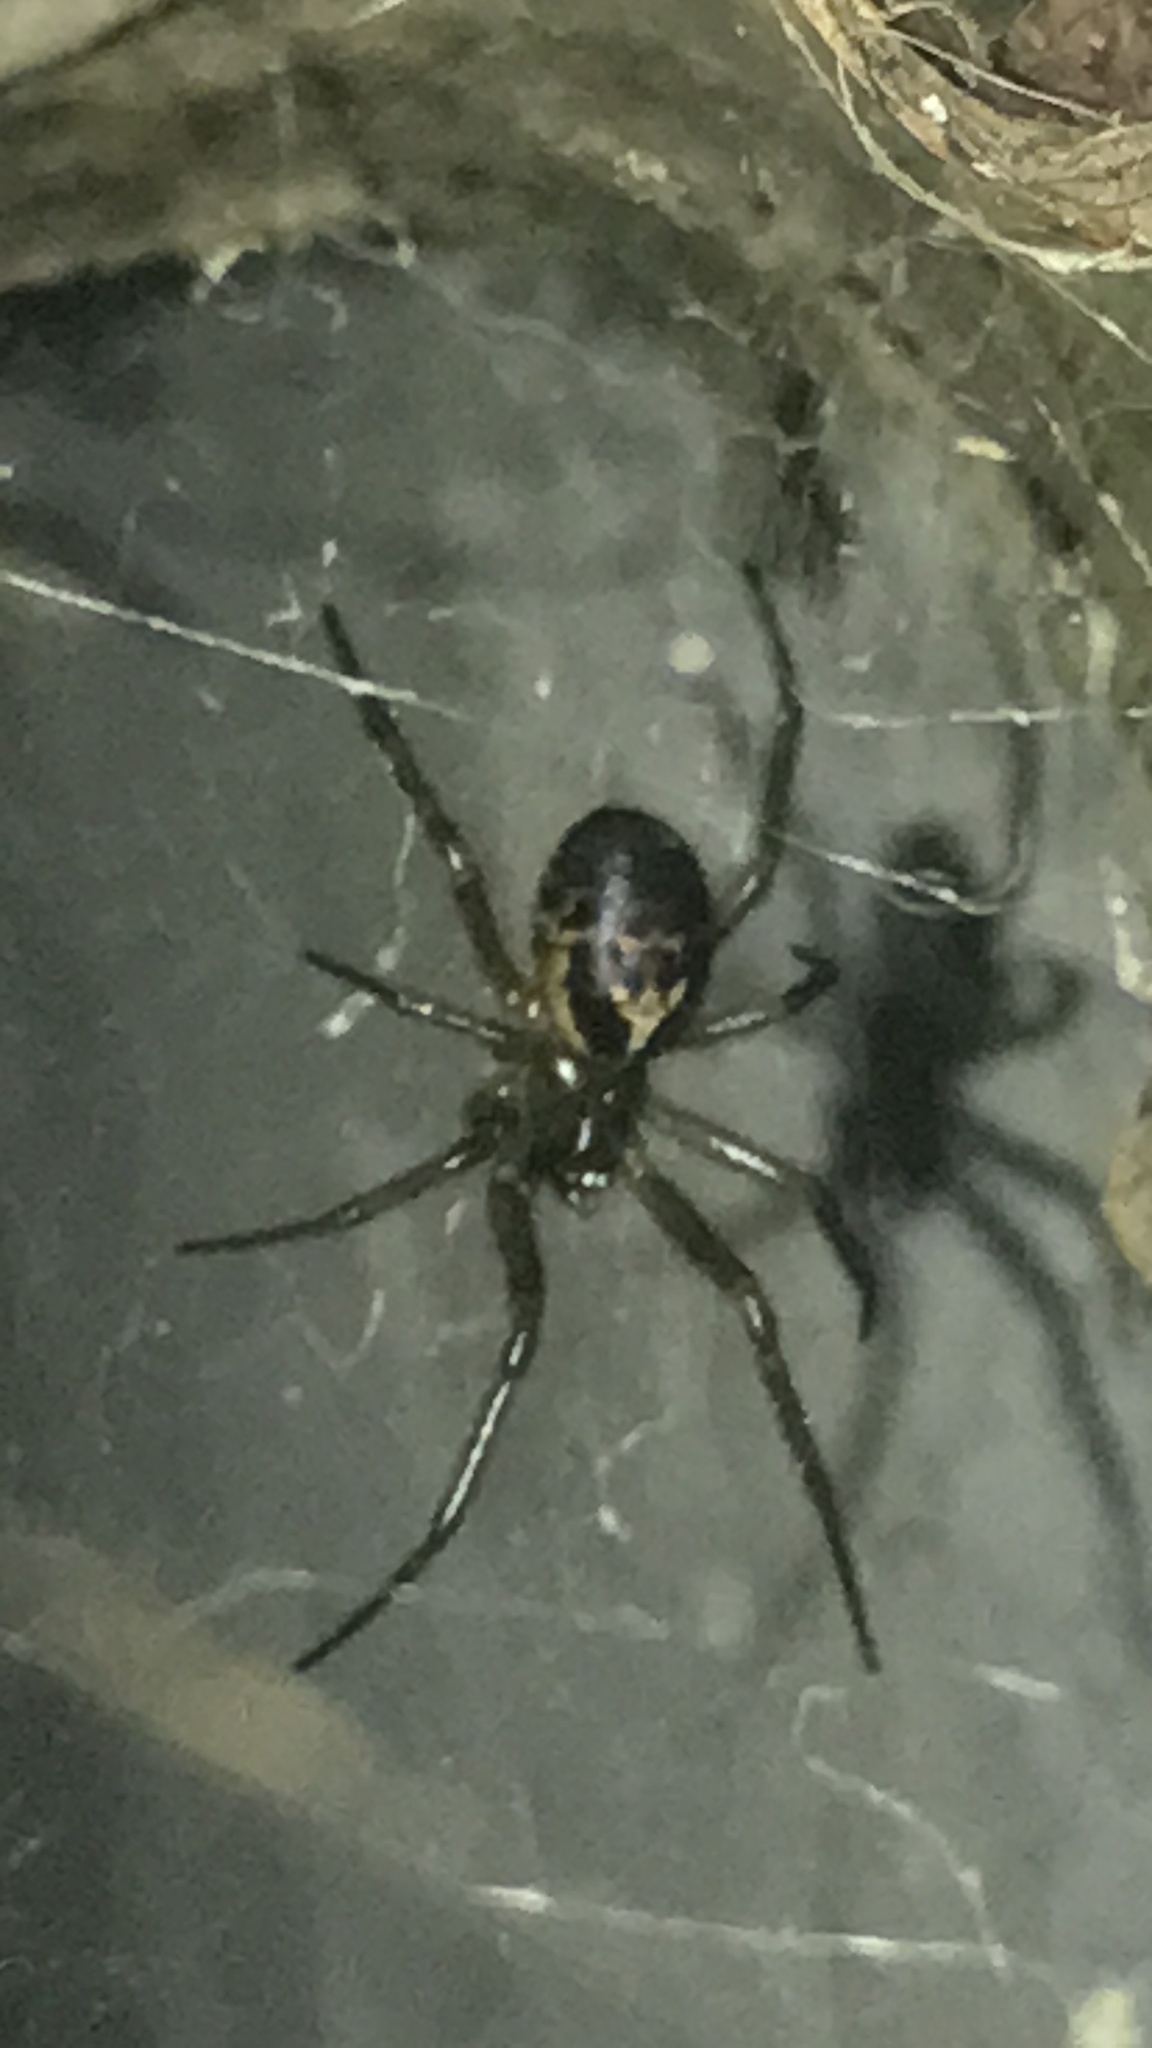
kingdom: Animalia
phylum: Arthropoda
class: Arachnida
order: Araneae
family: Theridiidae
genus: Steatoda
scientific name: Steatoda nobilis
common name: Cobweb weaver
